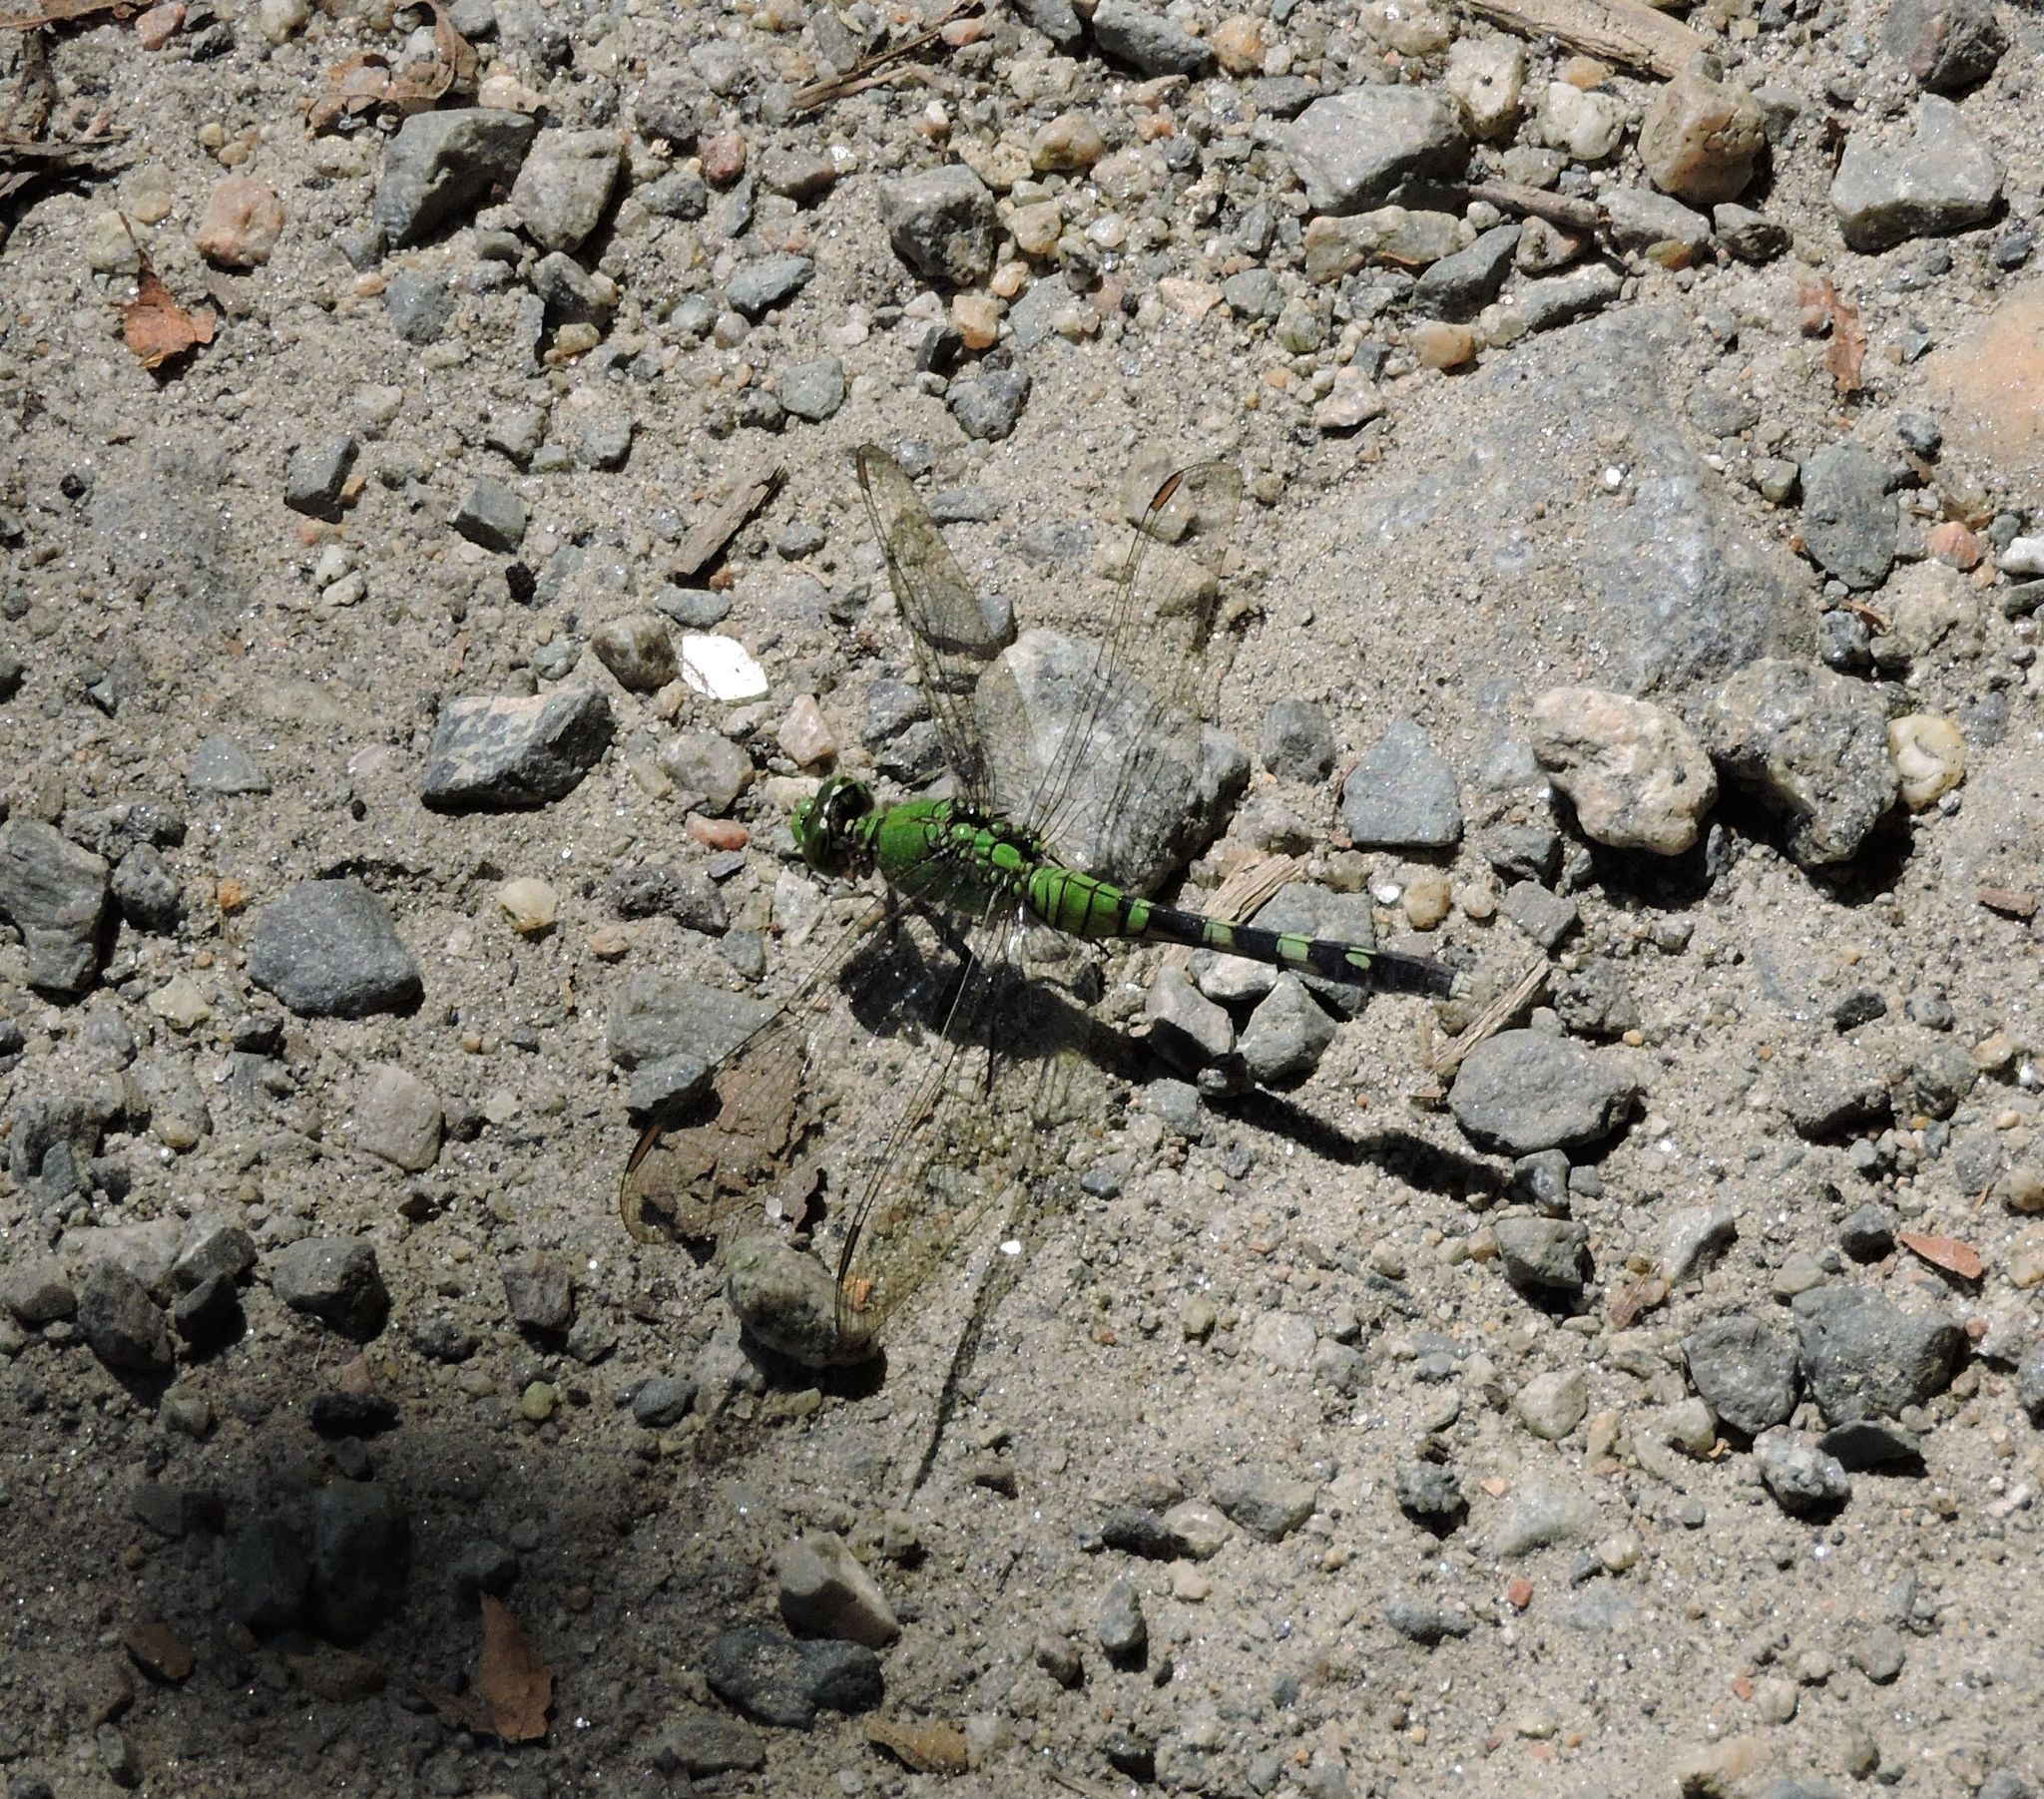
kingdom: Animalia
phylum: Arthropoda
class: Insecta
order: Odonata
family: Libellulidae
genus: Erythemis
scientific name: Erythemis simplicicollis
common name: Eastern pondhawk
